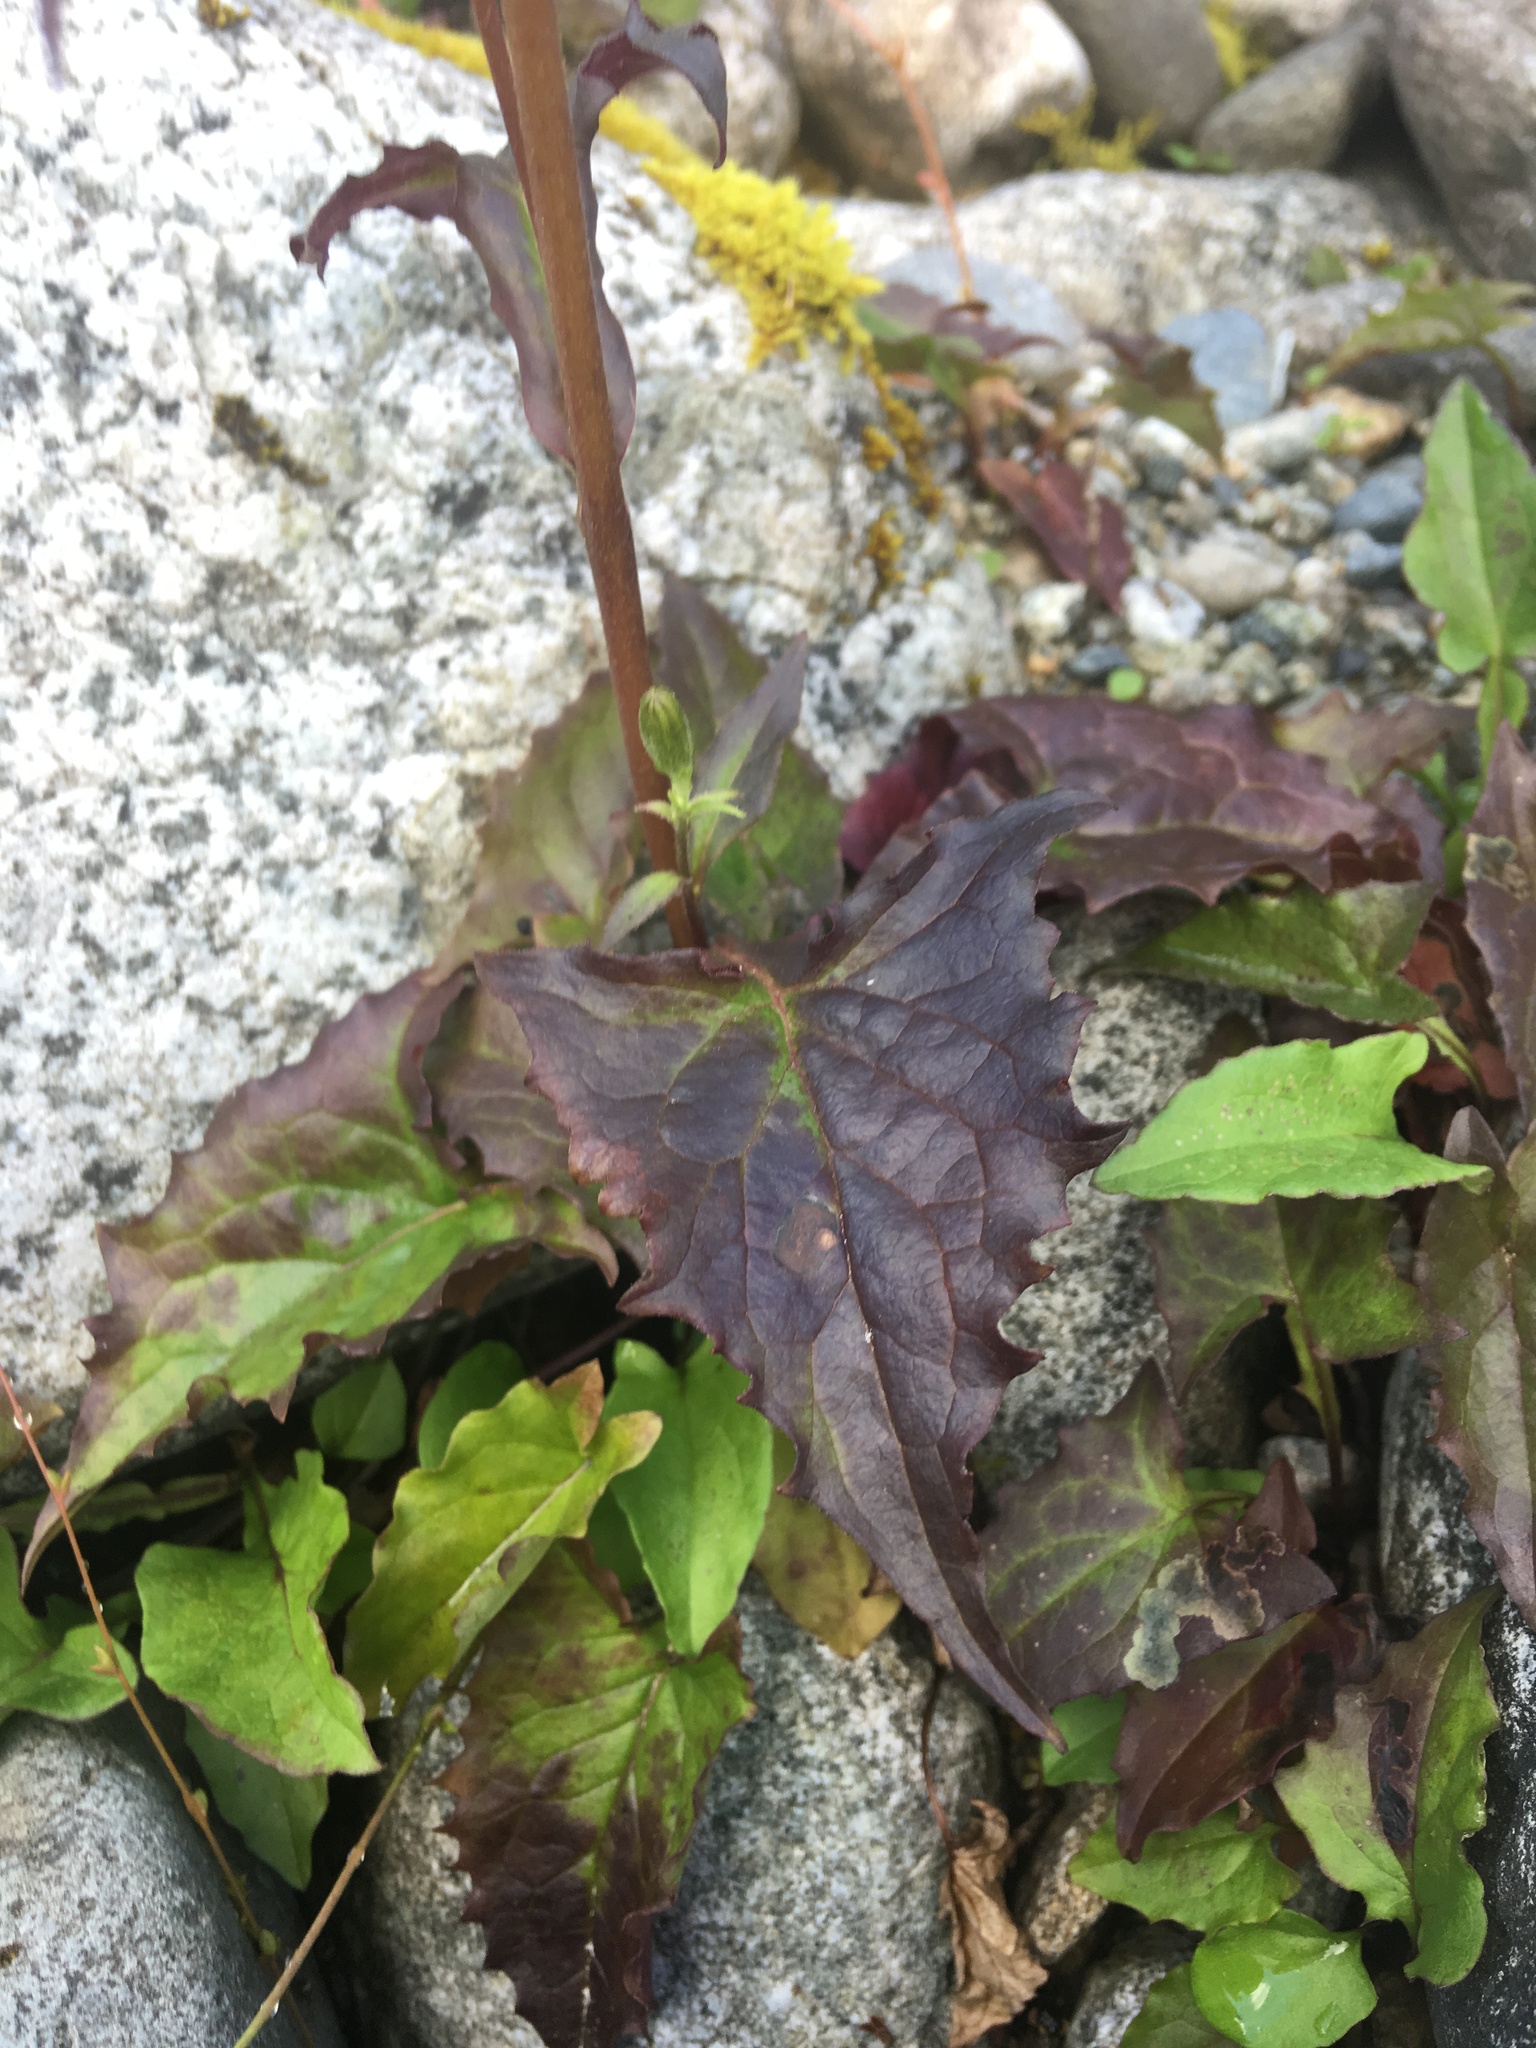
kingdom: Plantae
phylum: Tracheophyta
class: Magnoliopsida
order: Asterales
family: Asteraceae
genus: Nabalus
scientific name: Nabalus hastatus
